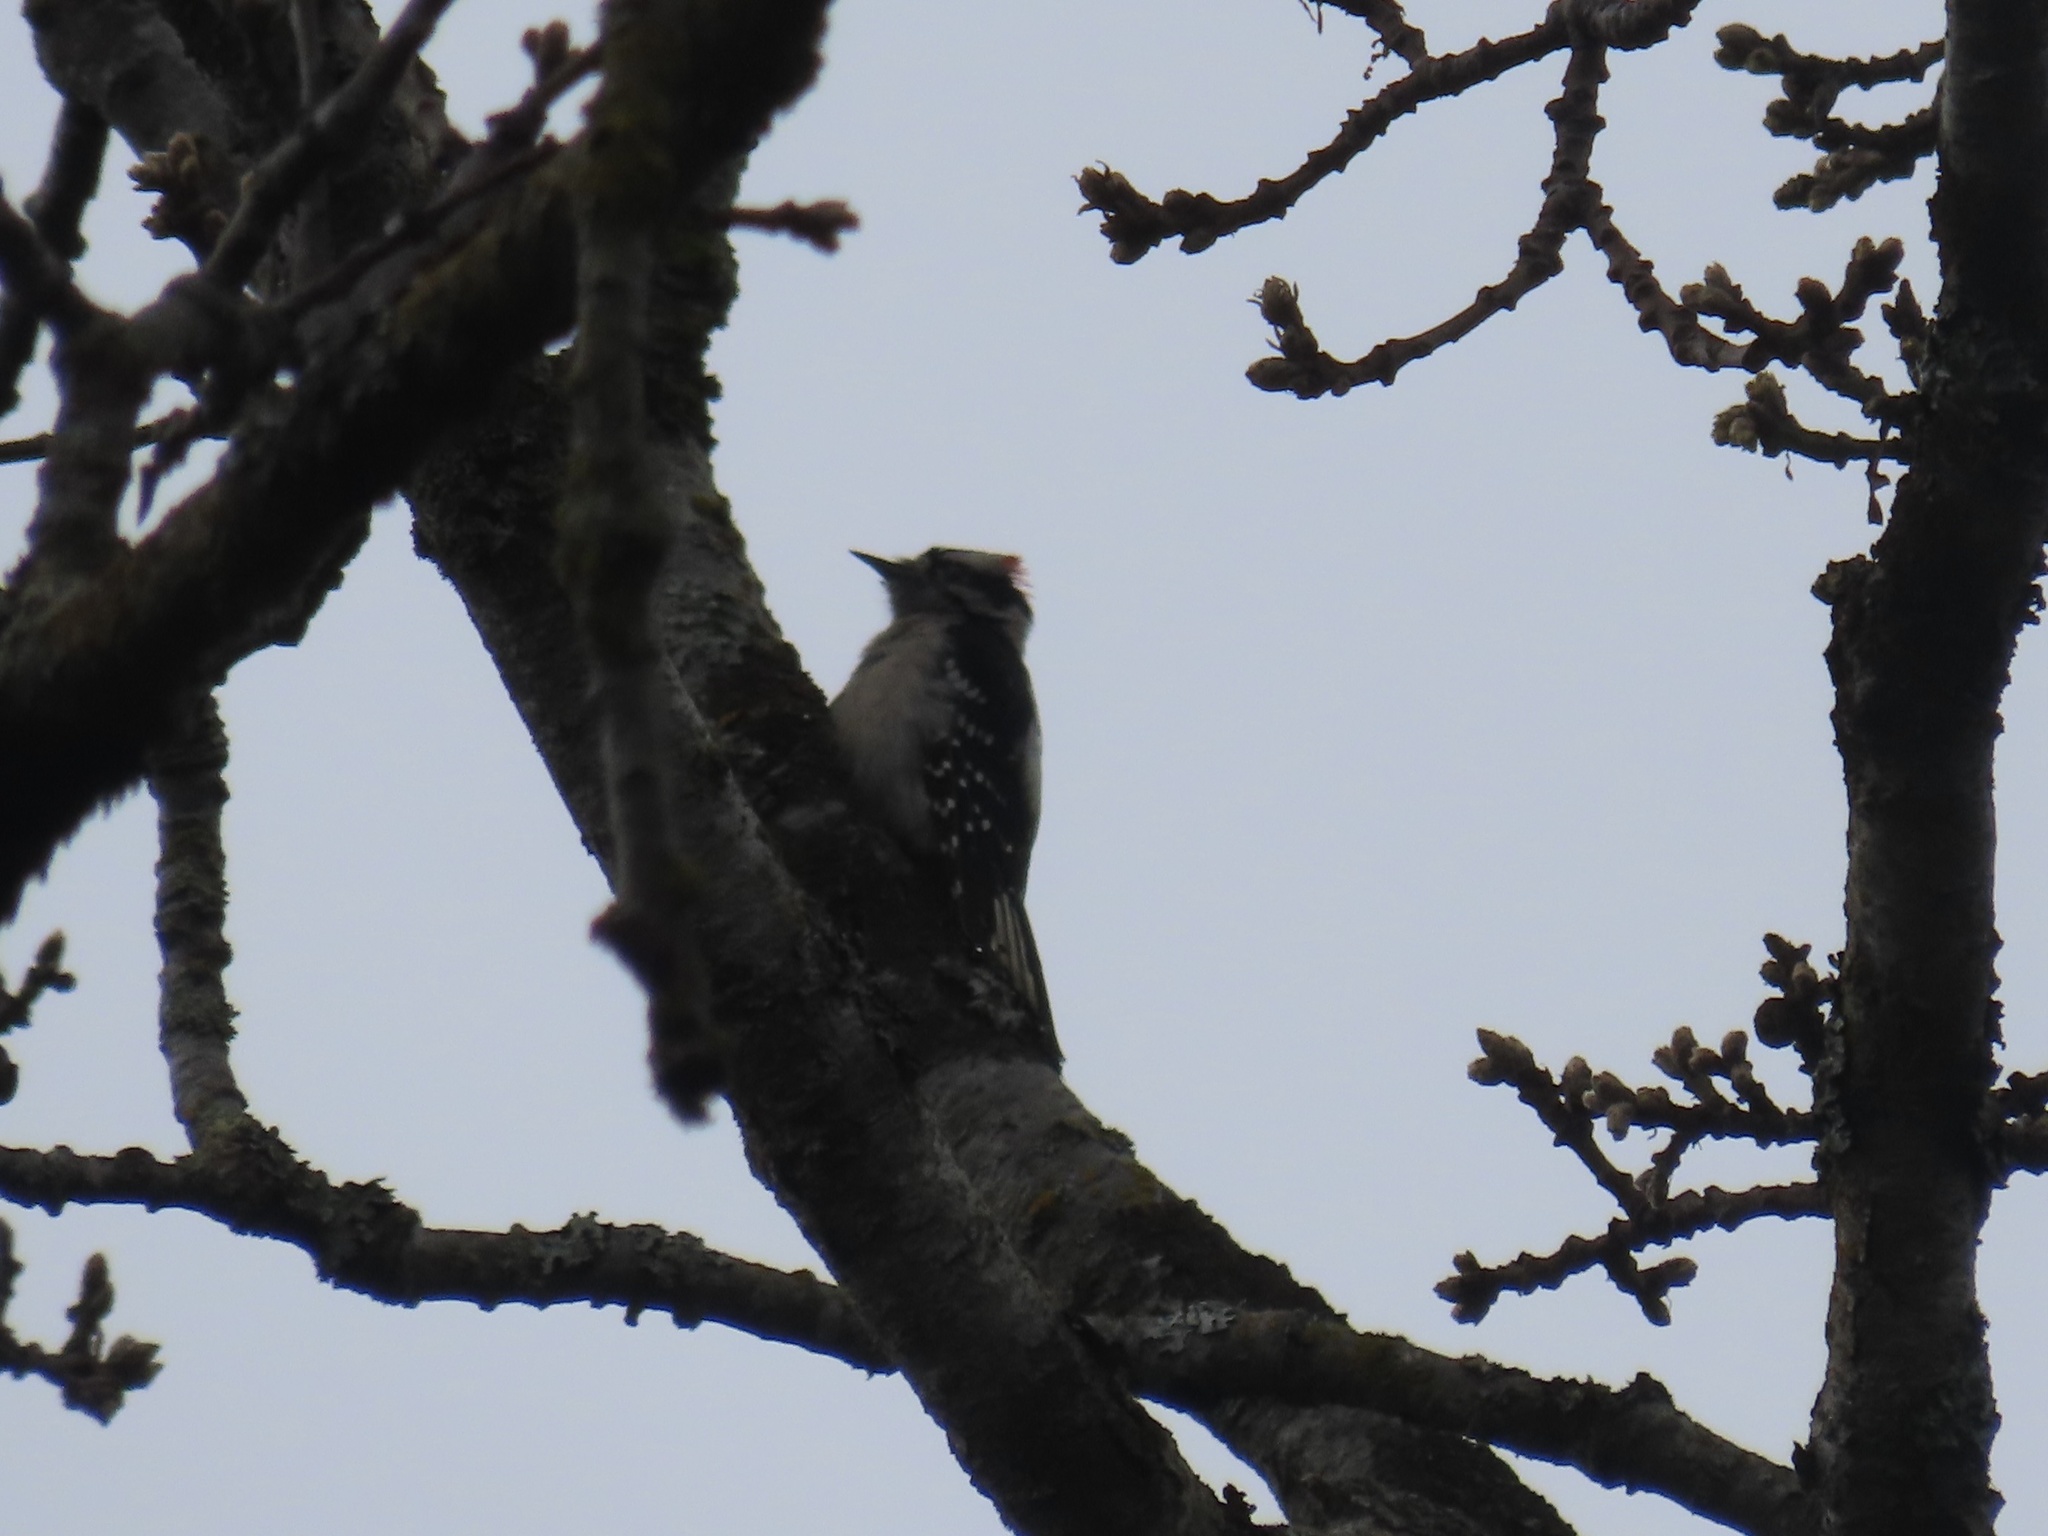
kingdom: Animalia
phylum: Chordata
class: Aves
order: Piciformes
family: Picidae
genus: Dryobates
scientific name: Dryobates pubescens
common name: Downy woodpecker
